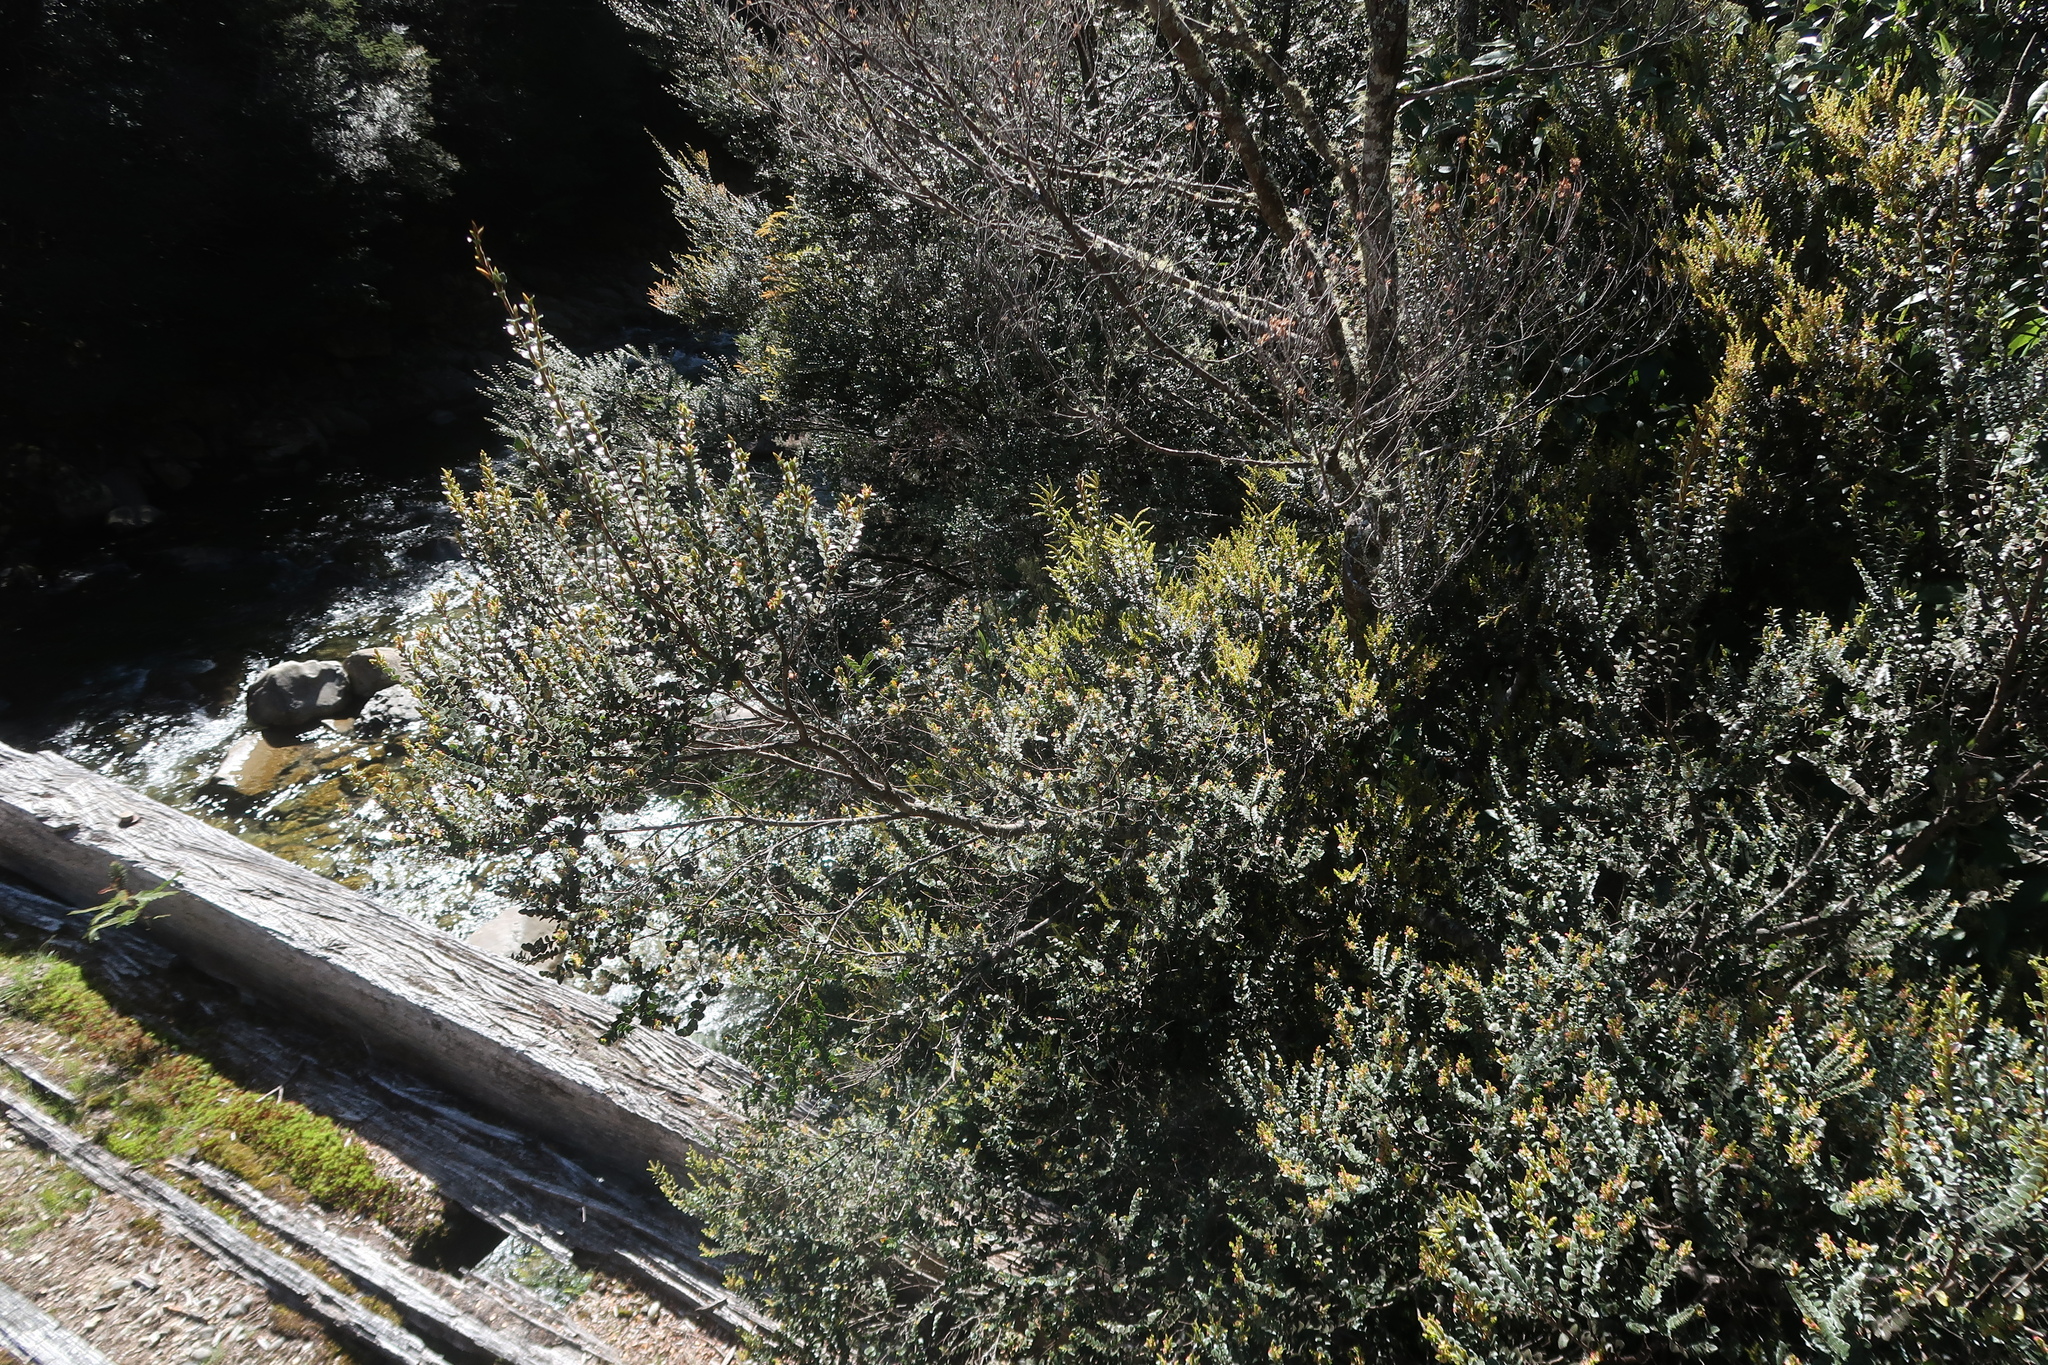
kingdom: Plantae
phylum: Tracheophyta
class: Magnoliopsida
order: Fagales
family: Nothofagaceae
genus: Nothofagus
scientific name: Nothofagus cunninghamii
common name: Myrtle beech
